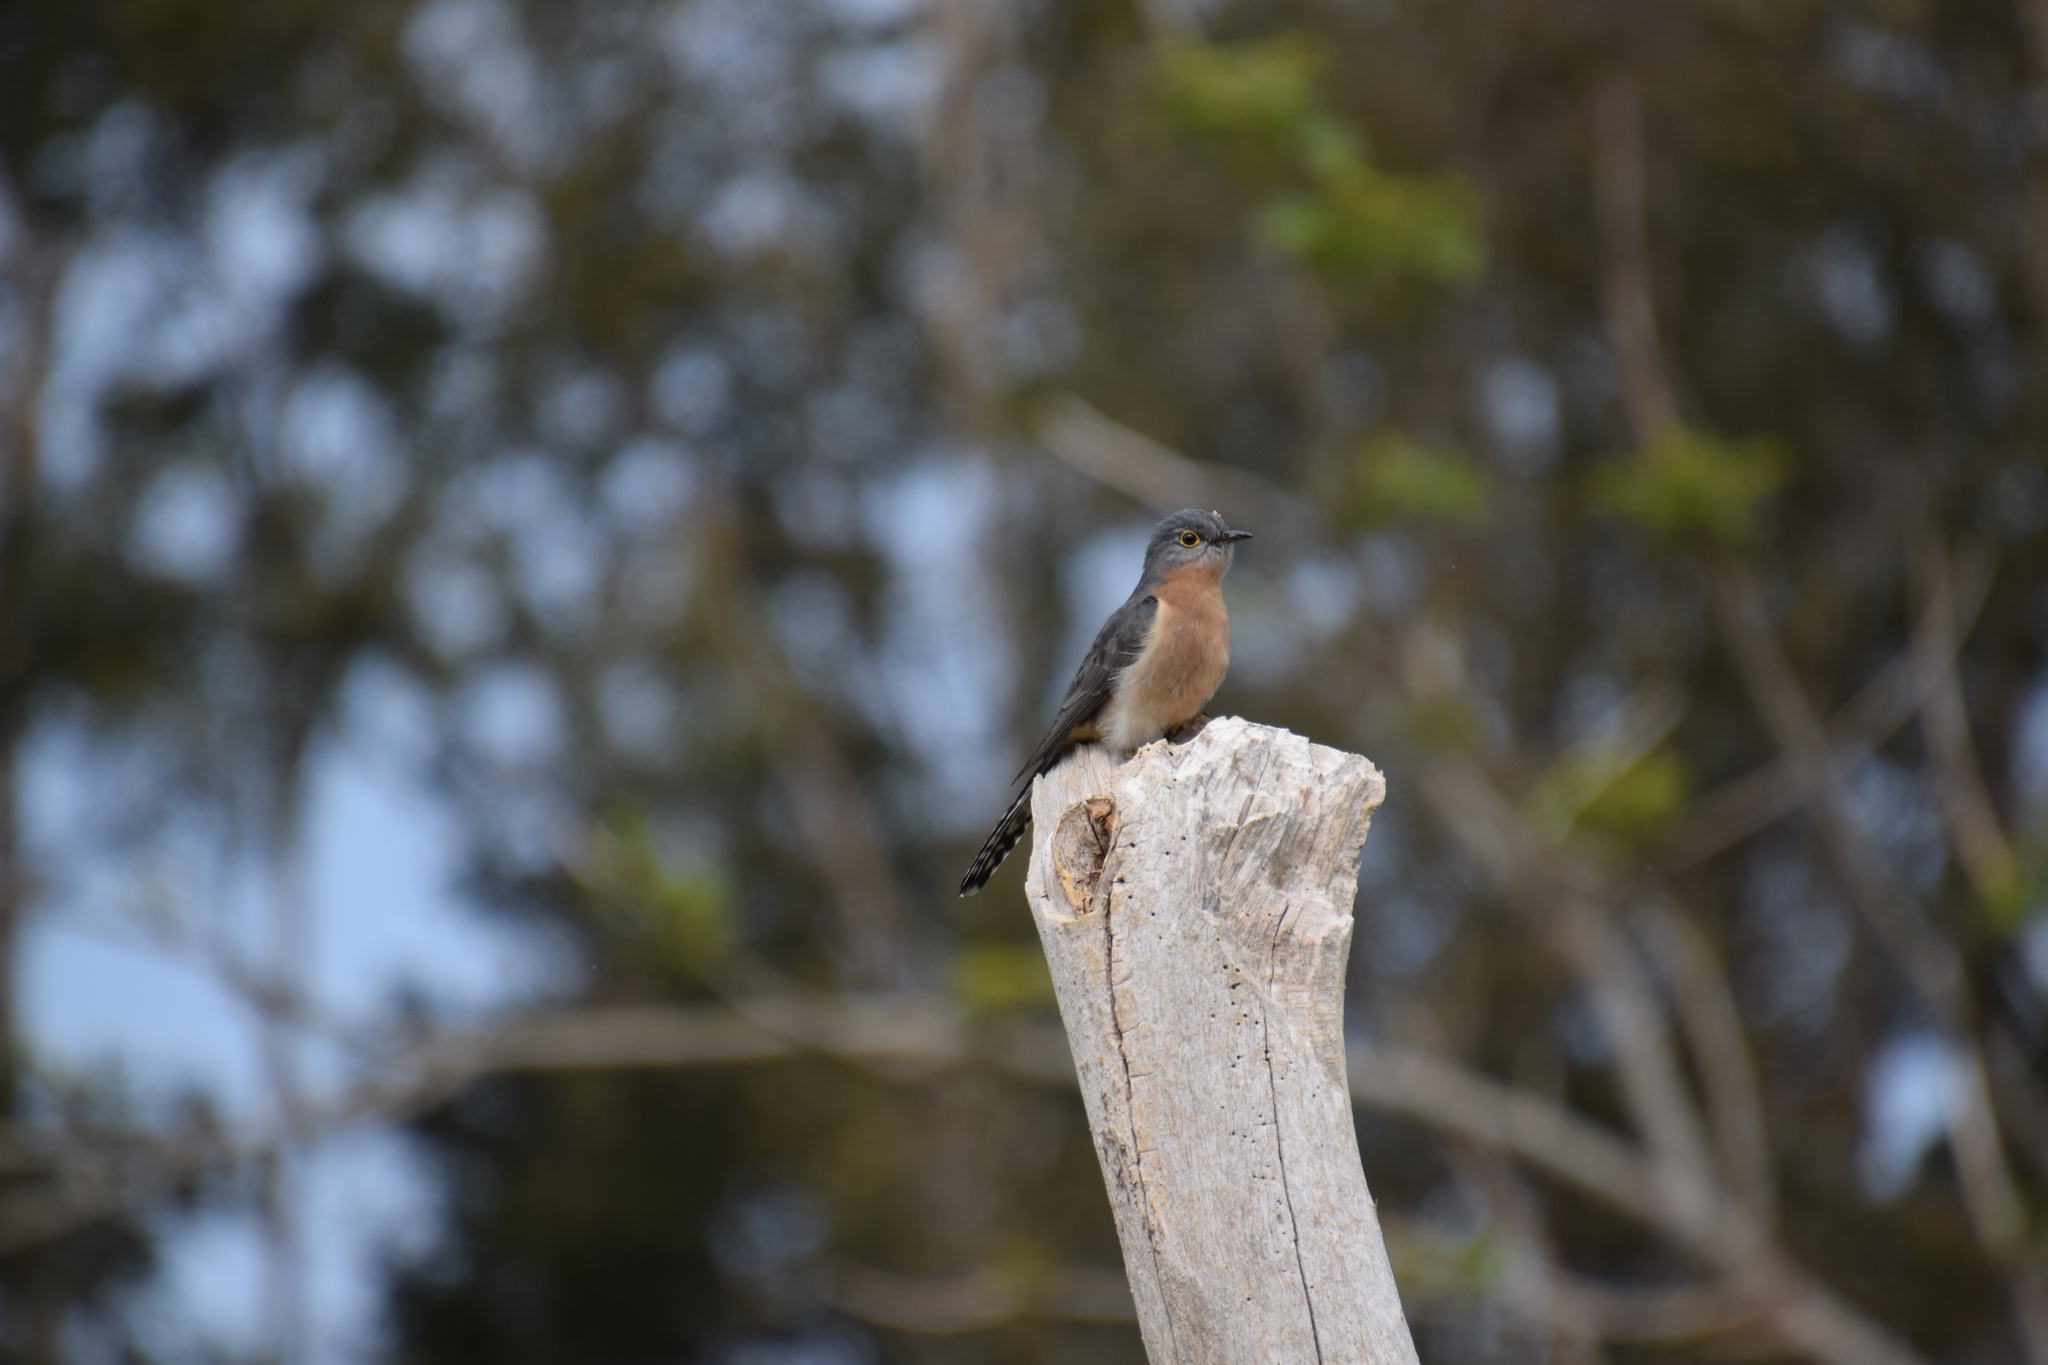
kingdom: Animalia
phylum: Chordata
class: Aves
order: Cuculiformes
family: Cuculidae
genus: Cacomantis
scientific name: Cacomantis flabelliformis
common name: Fan-tailed cuckoo
